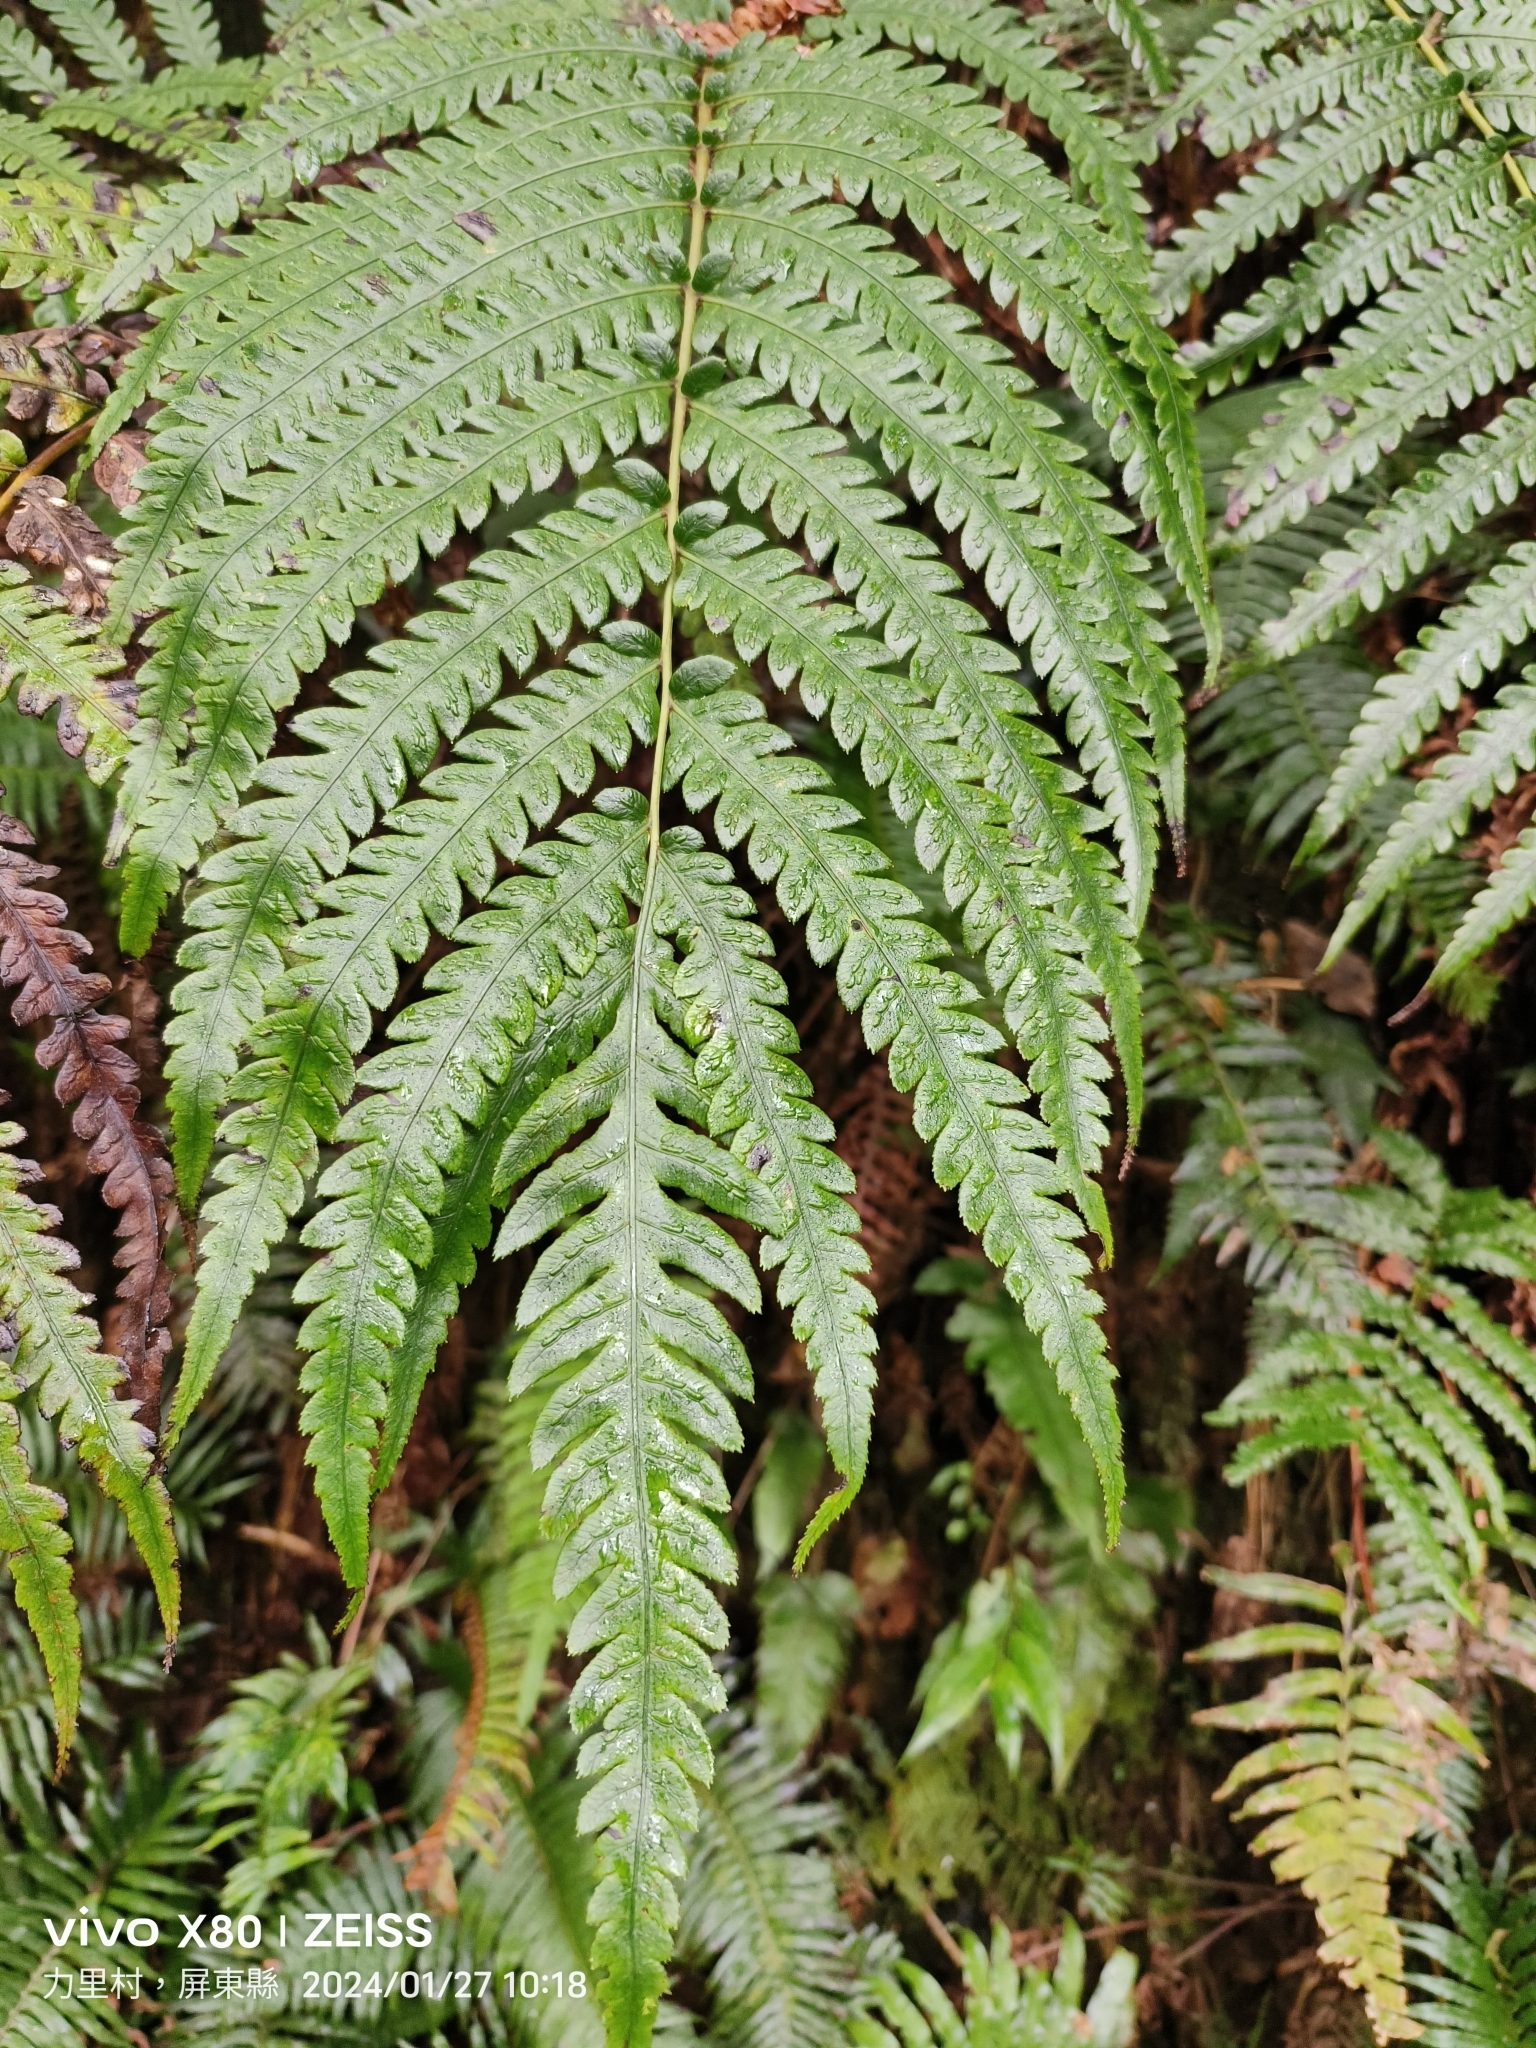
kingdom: Plantae
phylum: Tracheophyta
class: Polypodiopsida
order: Polypodiales
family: Blechnaceae
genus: Woodwardia
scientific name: Woodwardia japonica
